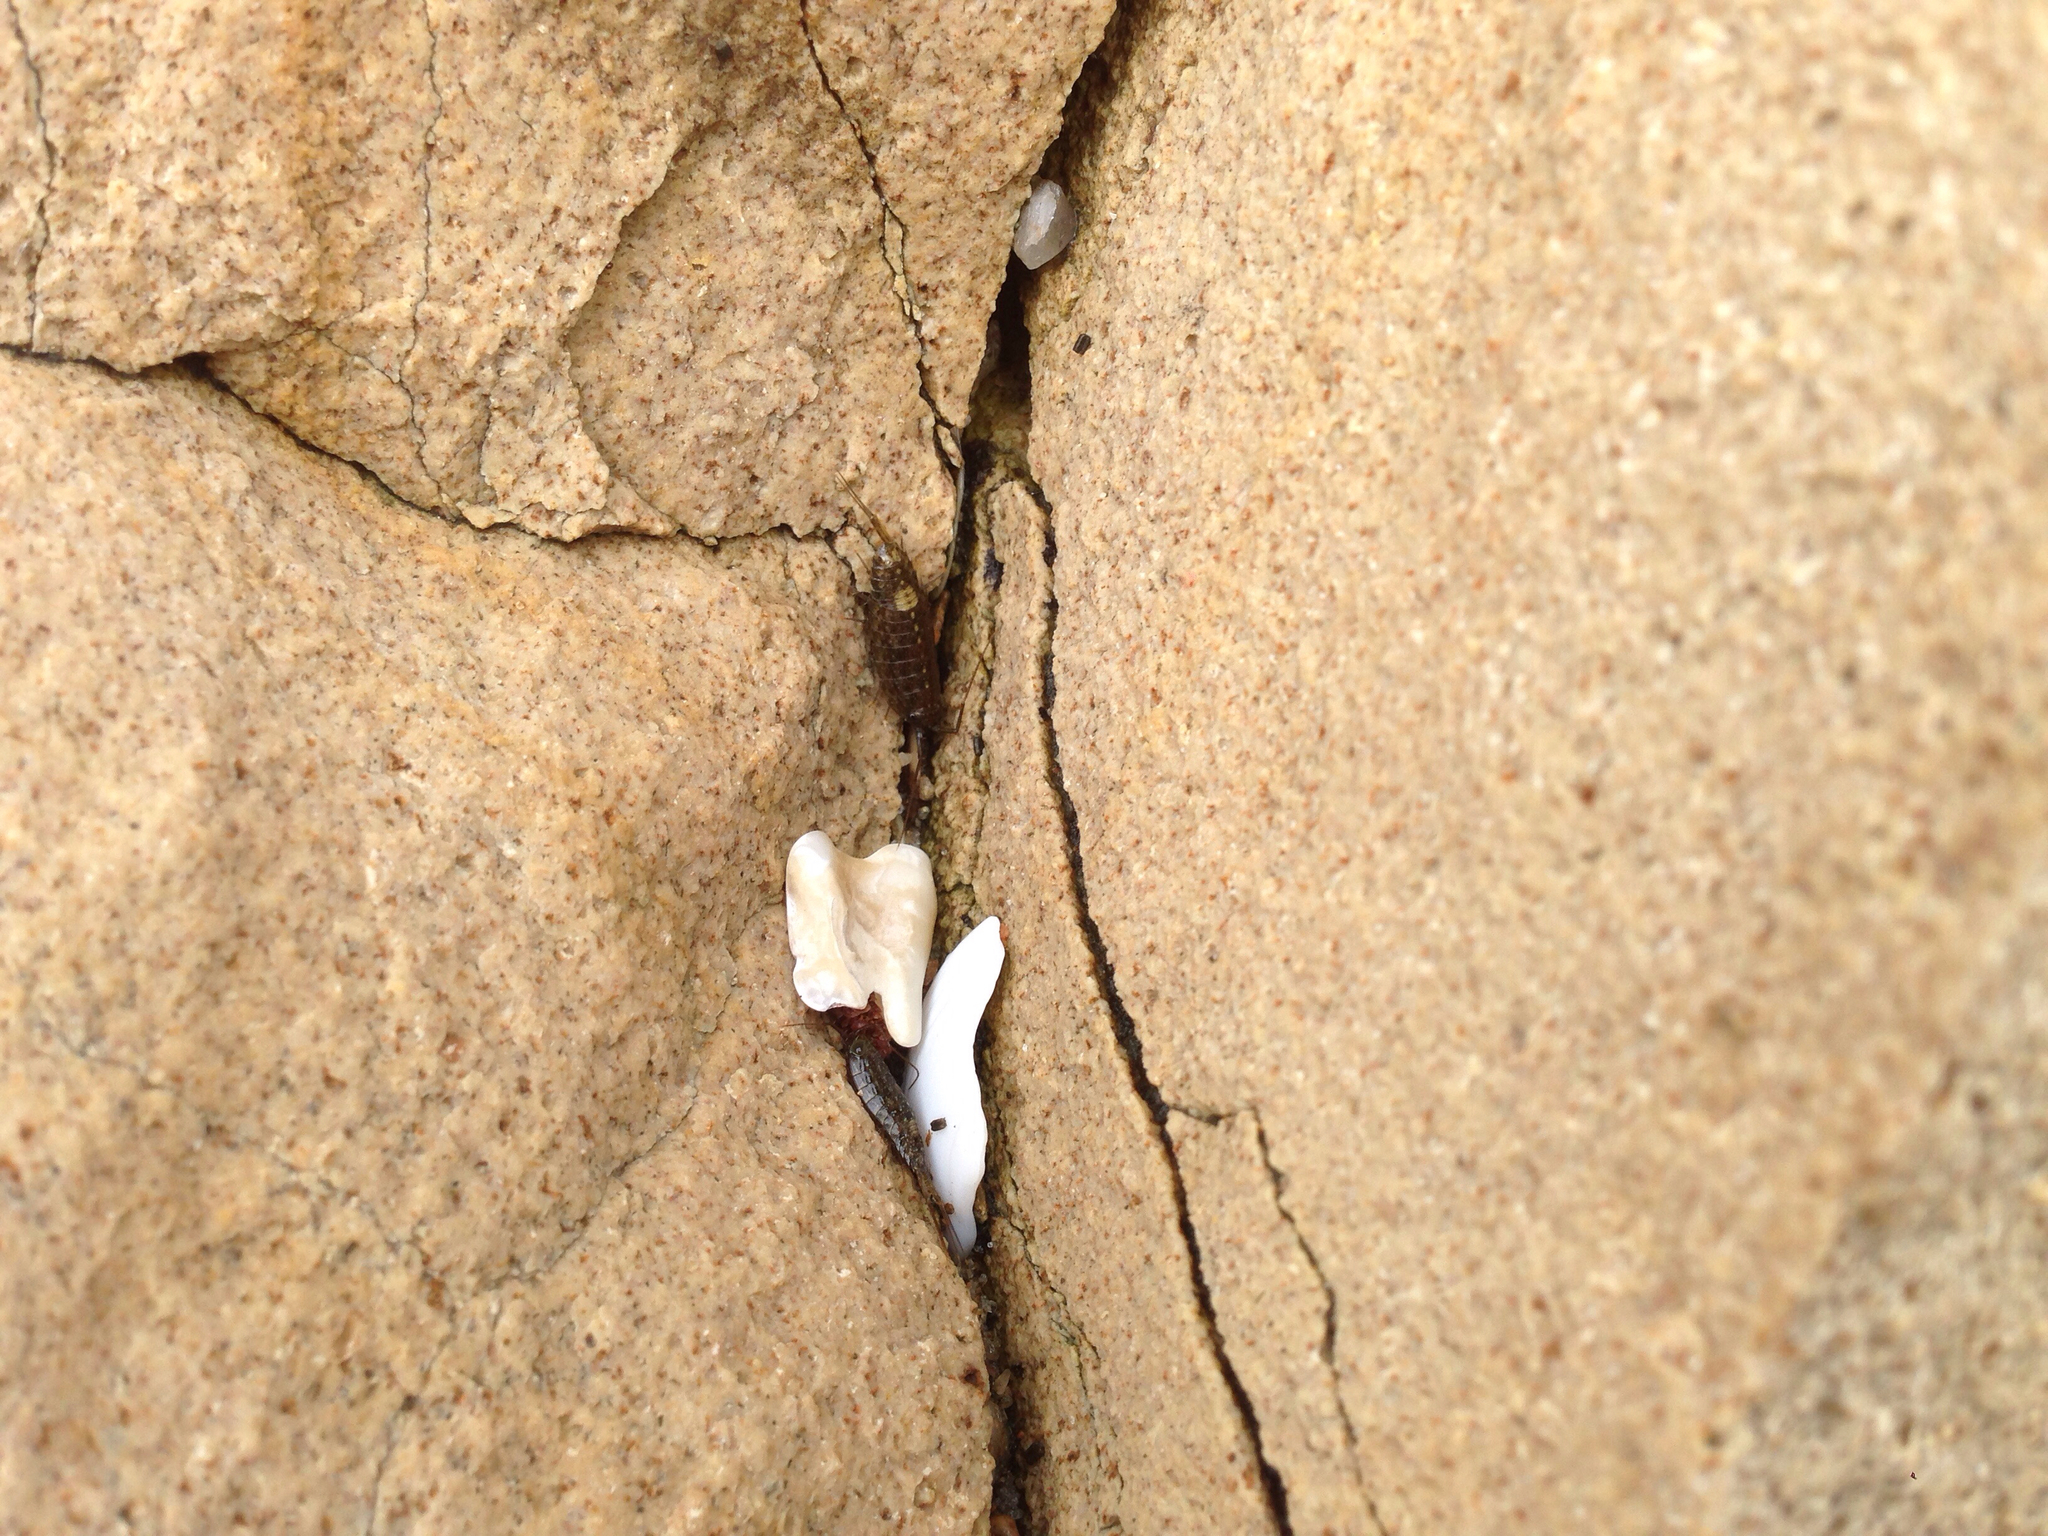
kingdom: Animalia
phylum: Arthropoda
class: Malacostraca
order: Isopoda
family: Ligiidae
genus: Ligia
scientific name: Ligia exotica
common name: Wharf roach
